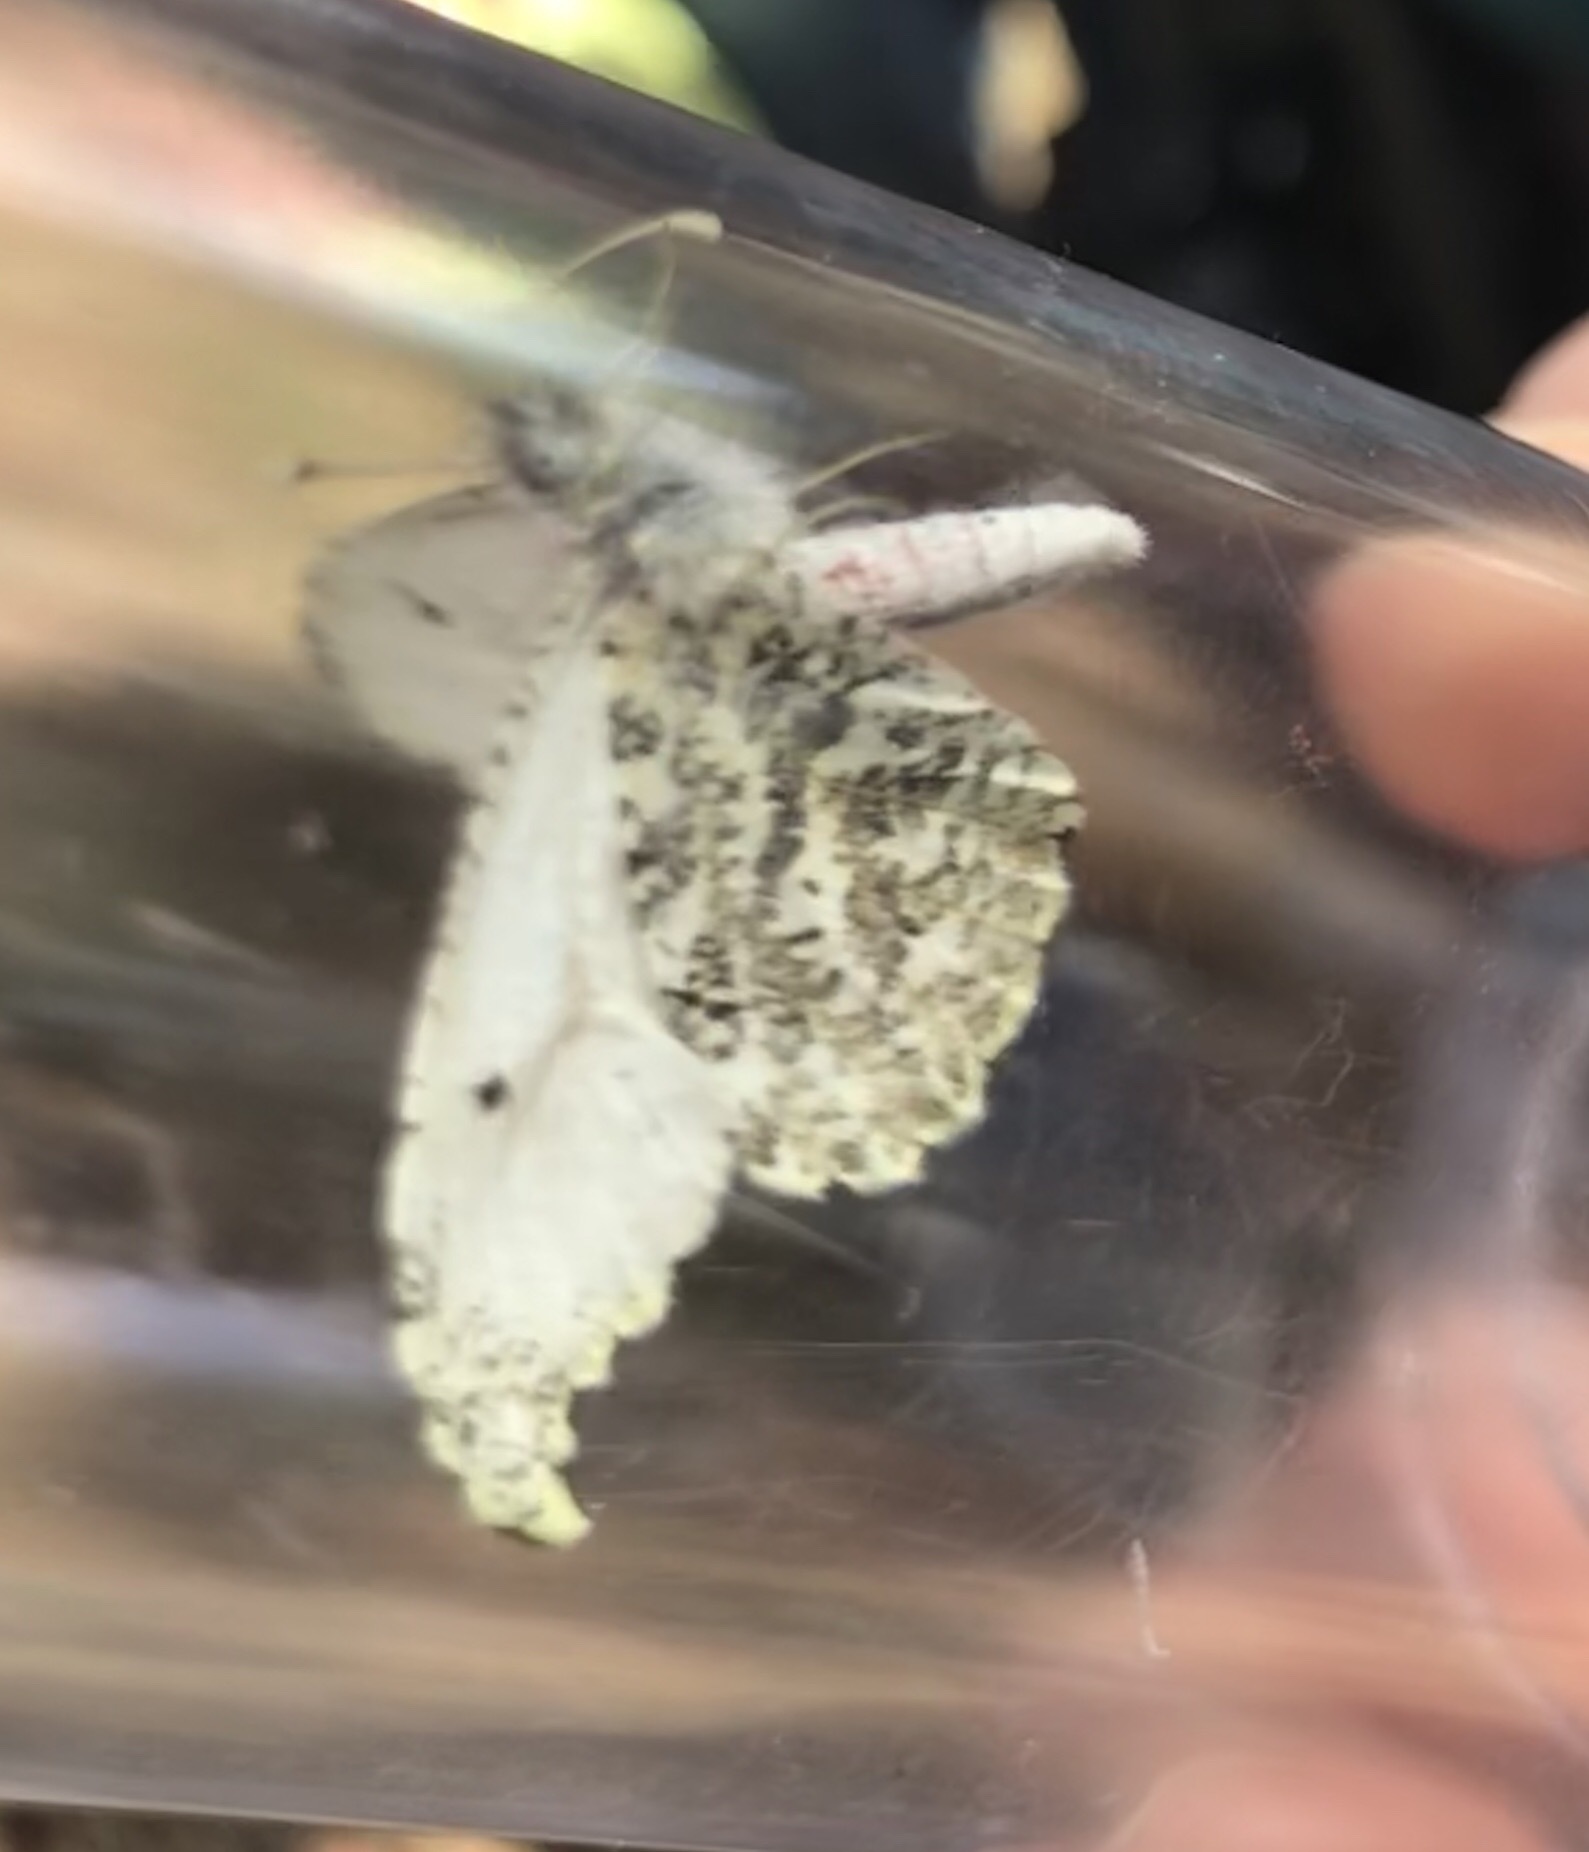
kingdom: Animalia
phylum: Arthropoda
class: Insecta
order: Lepidoptera
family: Pieridae
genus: Anthocharis
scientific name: Anthocharis midea
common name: Falcate orangetip
